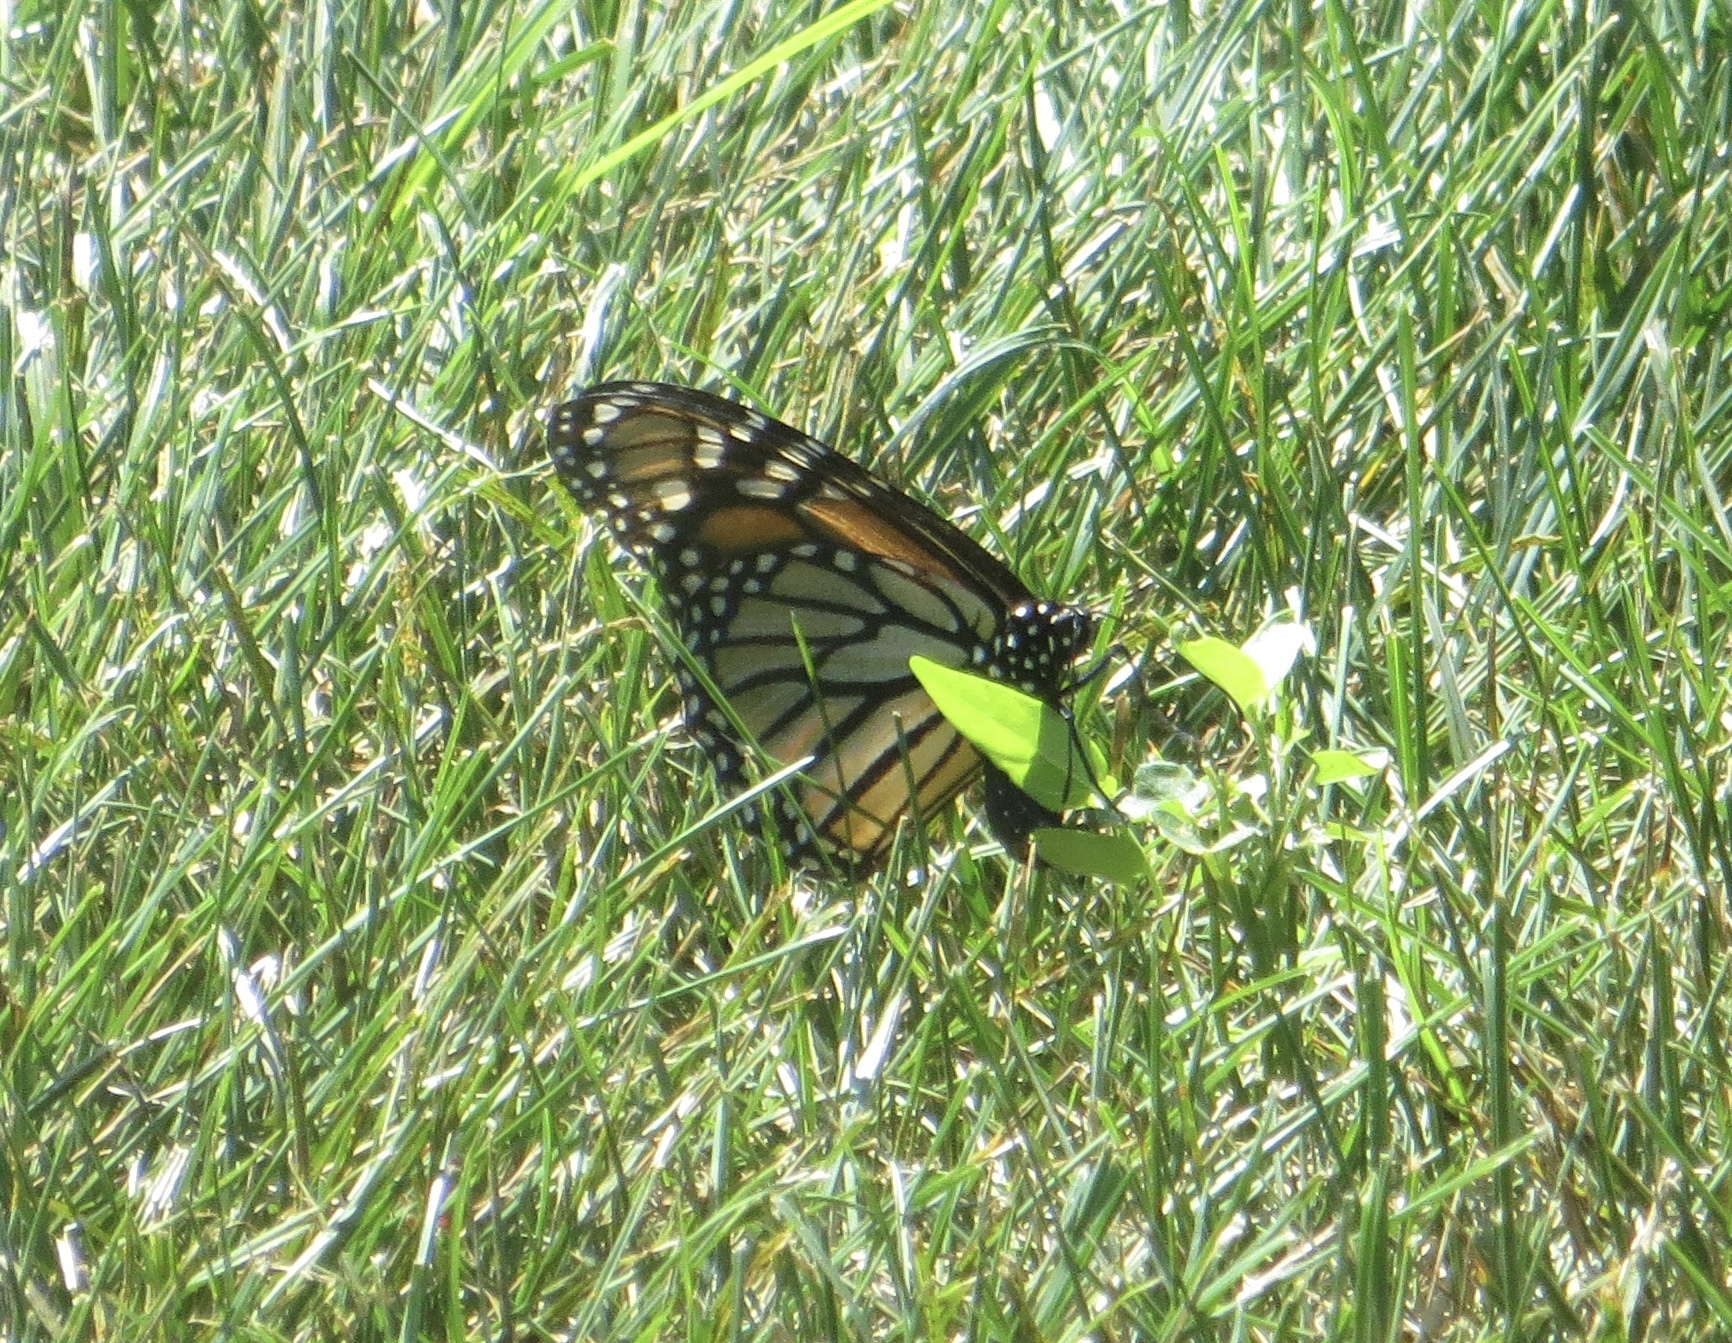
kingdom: Animalia
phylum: Arthropoda
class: Insecta
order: Lepidoptera
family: Nymphalidae
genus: Danaus
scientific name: Danaus plexippus
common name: Monarch
